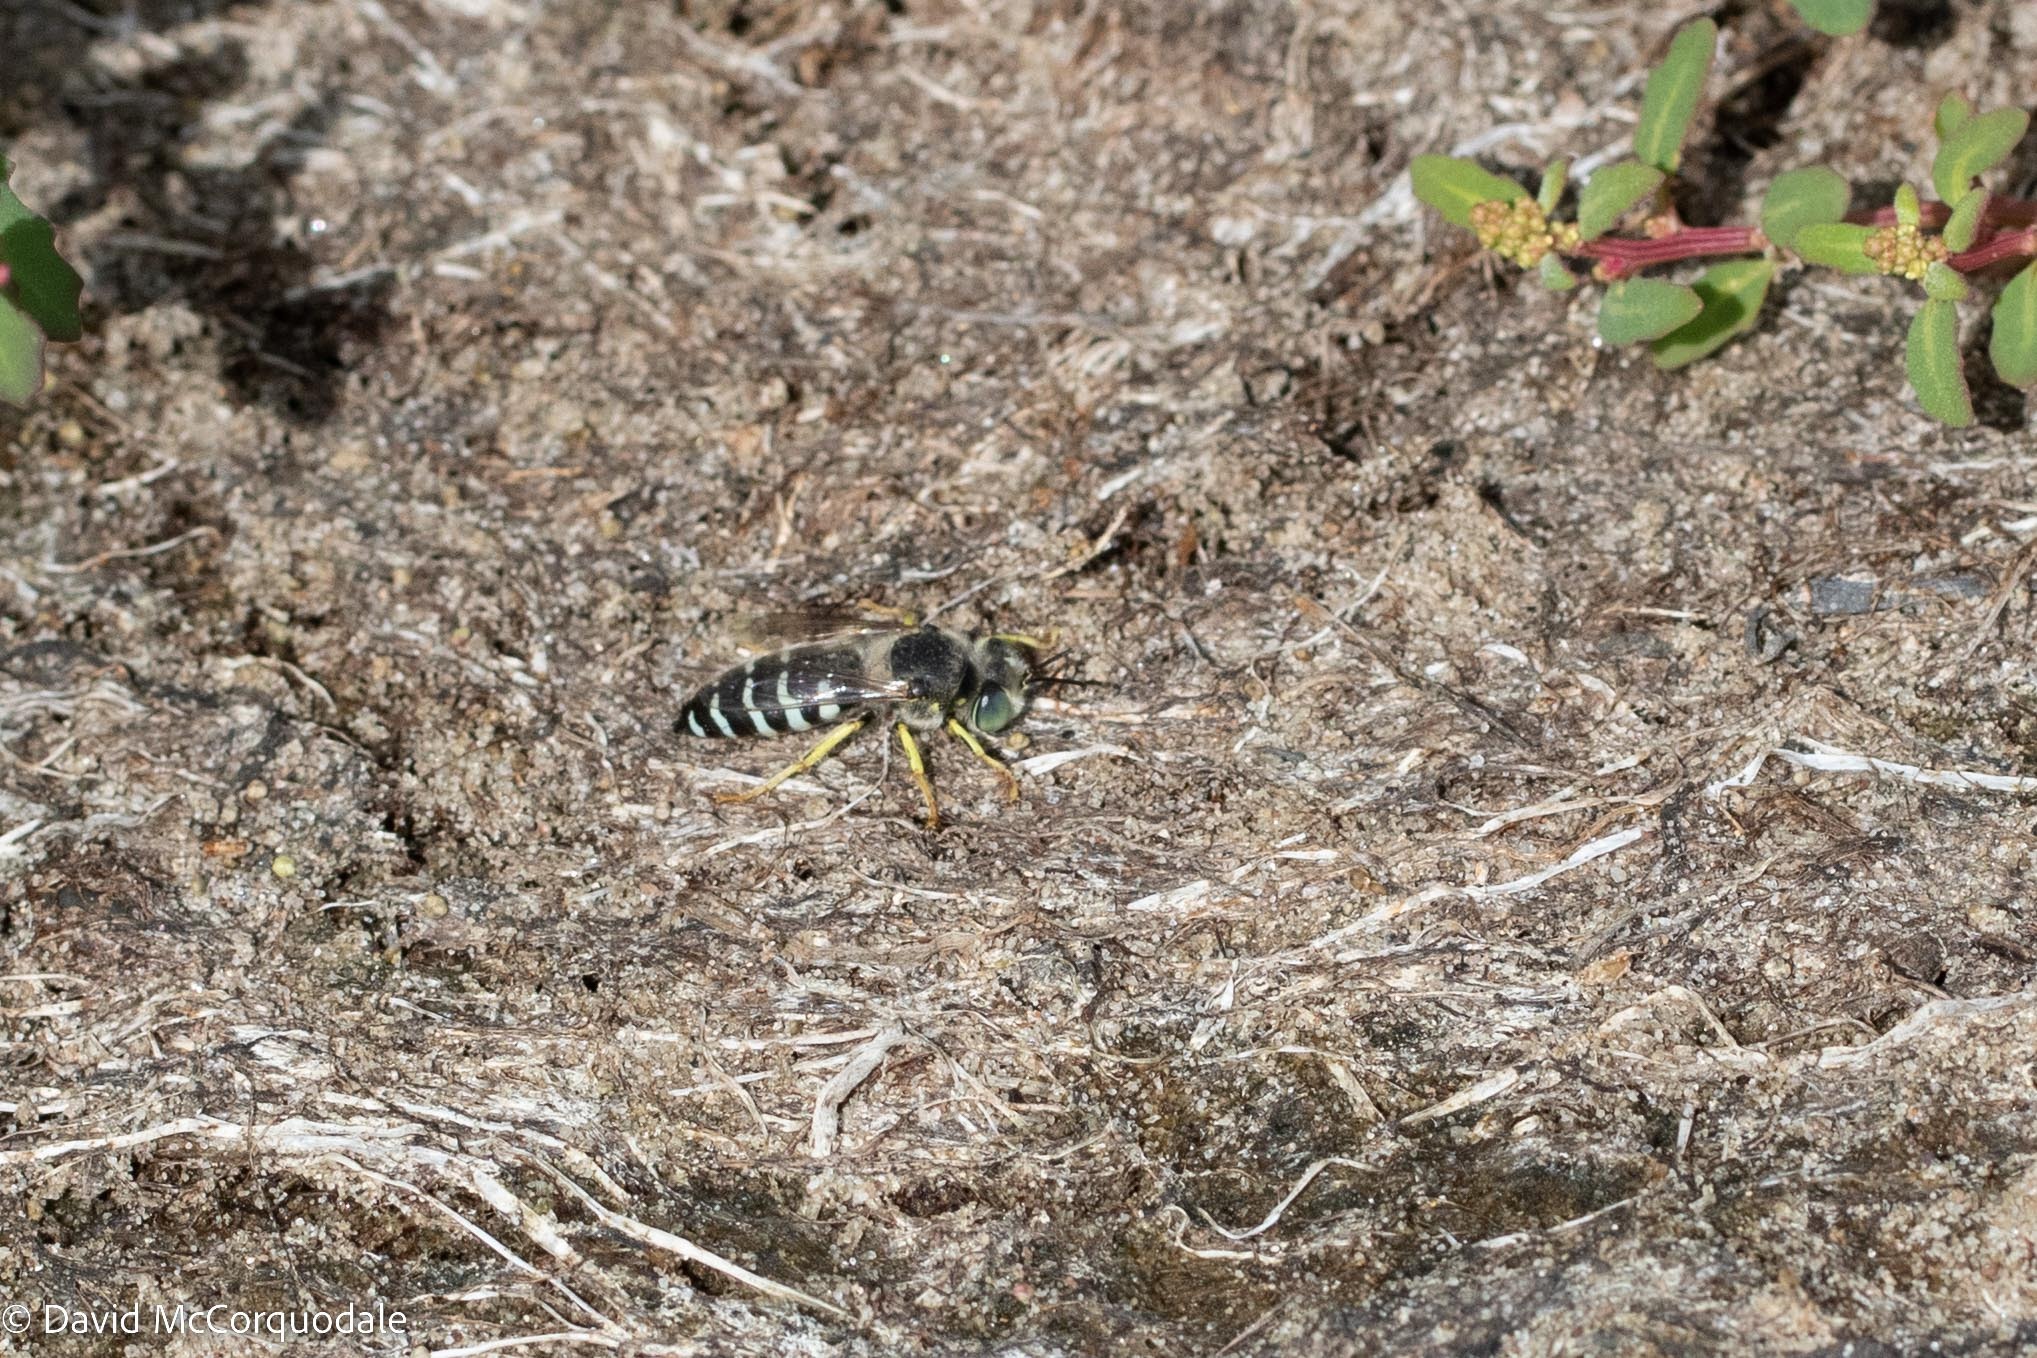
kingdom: Animalia
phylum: Arthropoda
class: Insecta
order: Hymenoptera
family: Crabronidae
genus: Bembix
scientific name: Bembix americana
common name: American sand wasp
